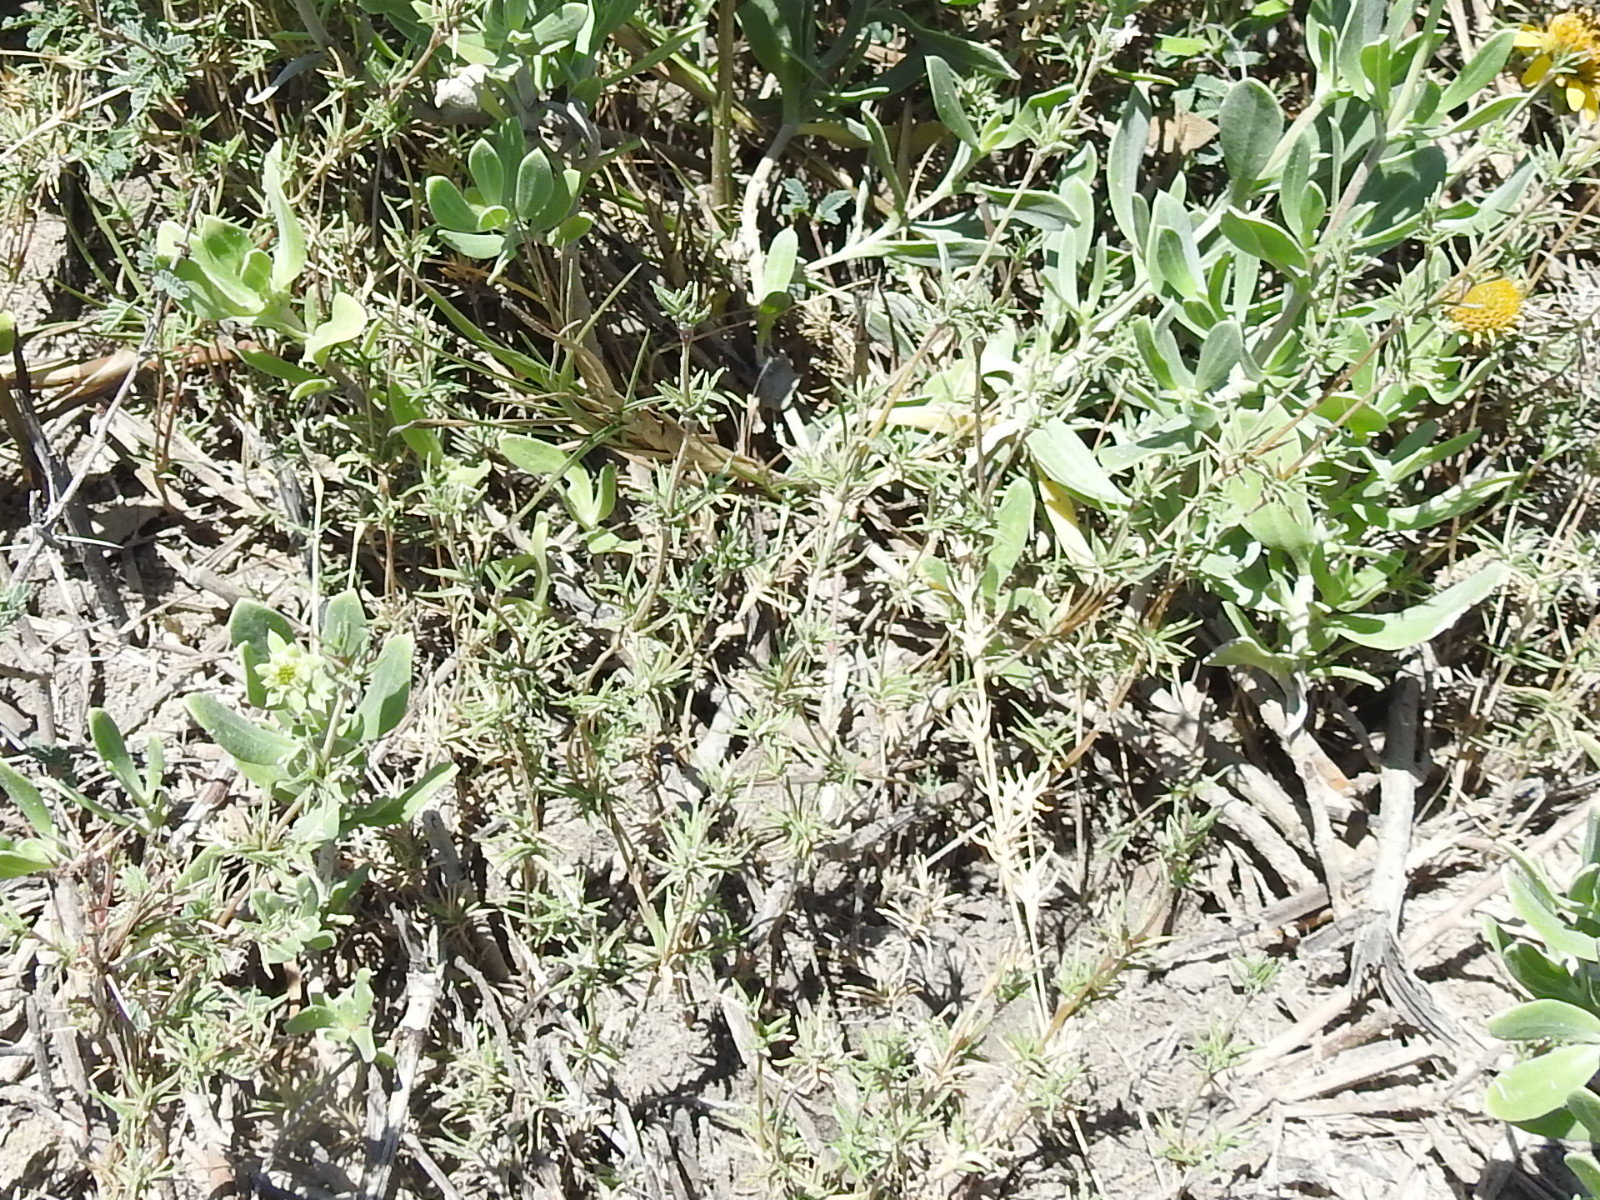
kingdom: Plantae
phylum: Tracheophyta
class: Liliopsida
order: Poales
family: Poaceae
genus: Distichlis
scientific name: Distichlis littoralis
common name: Shore grass
